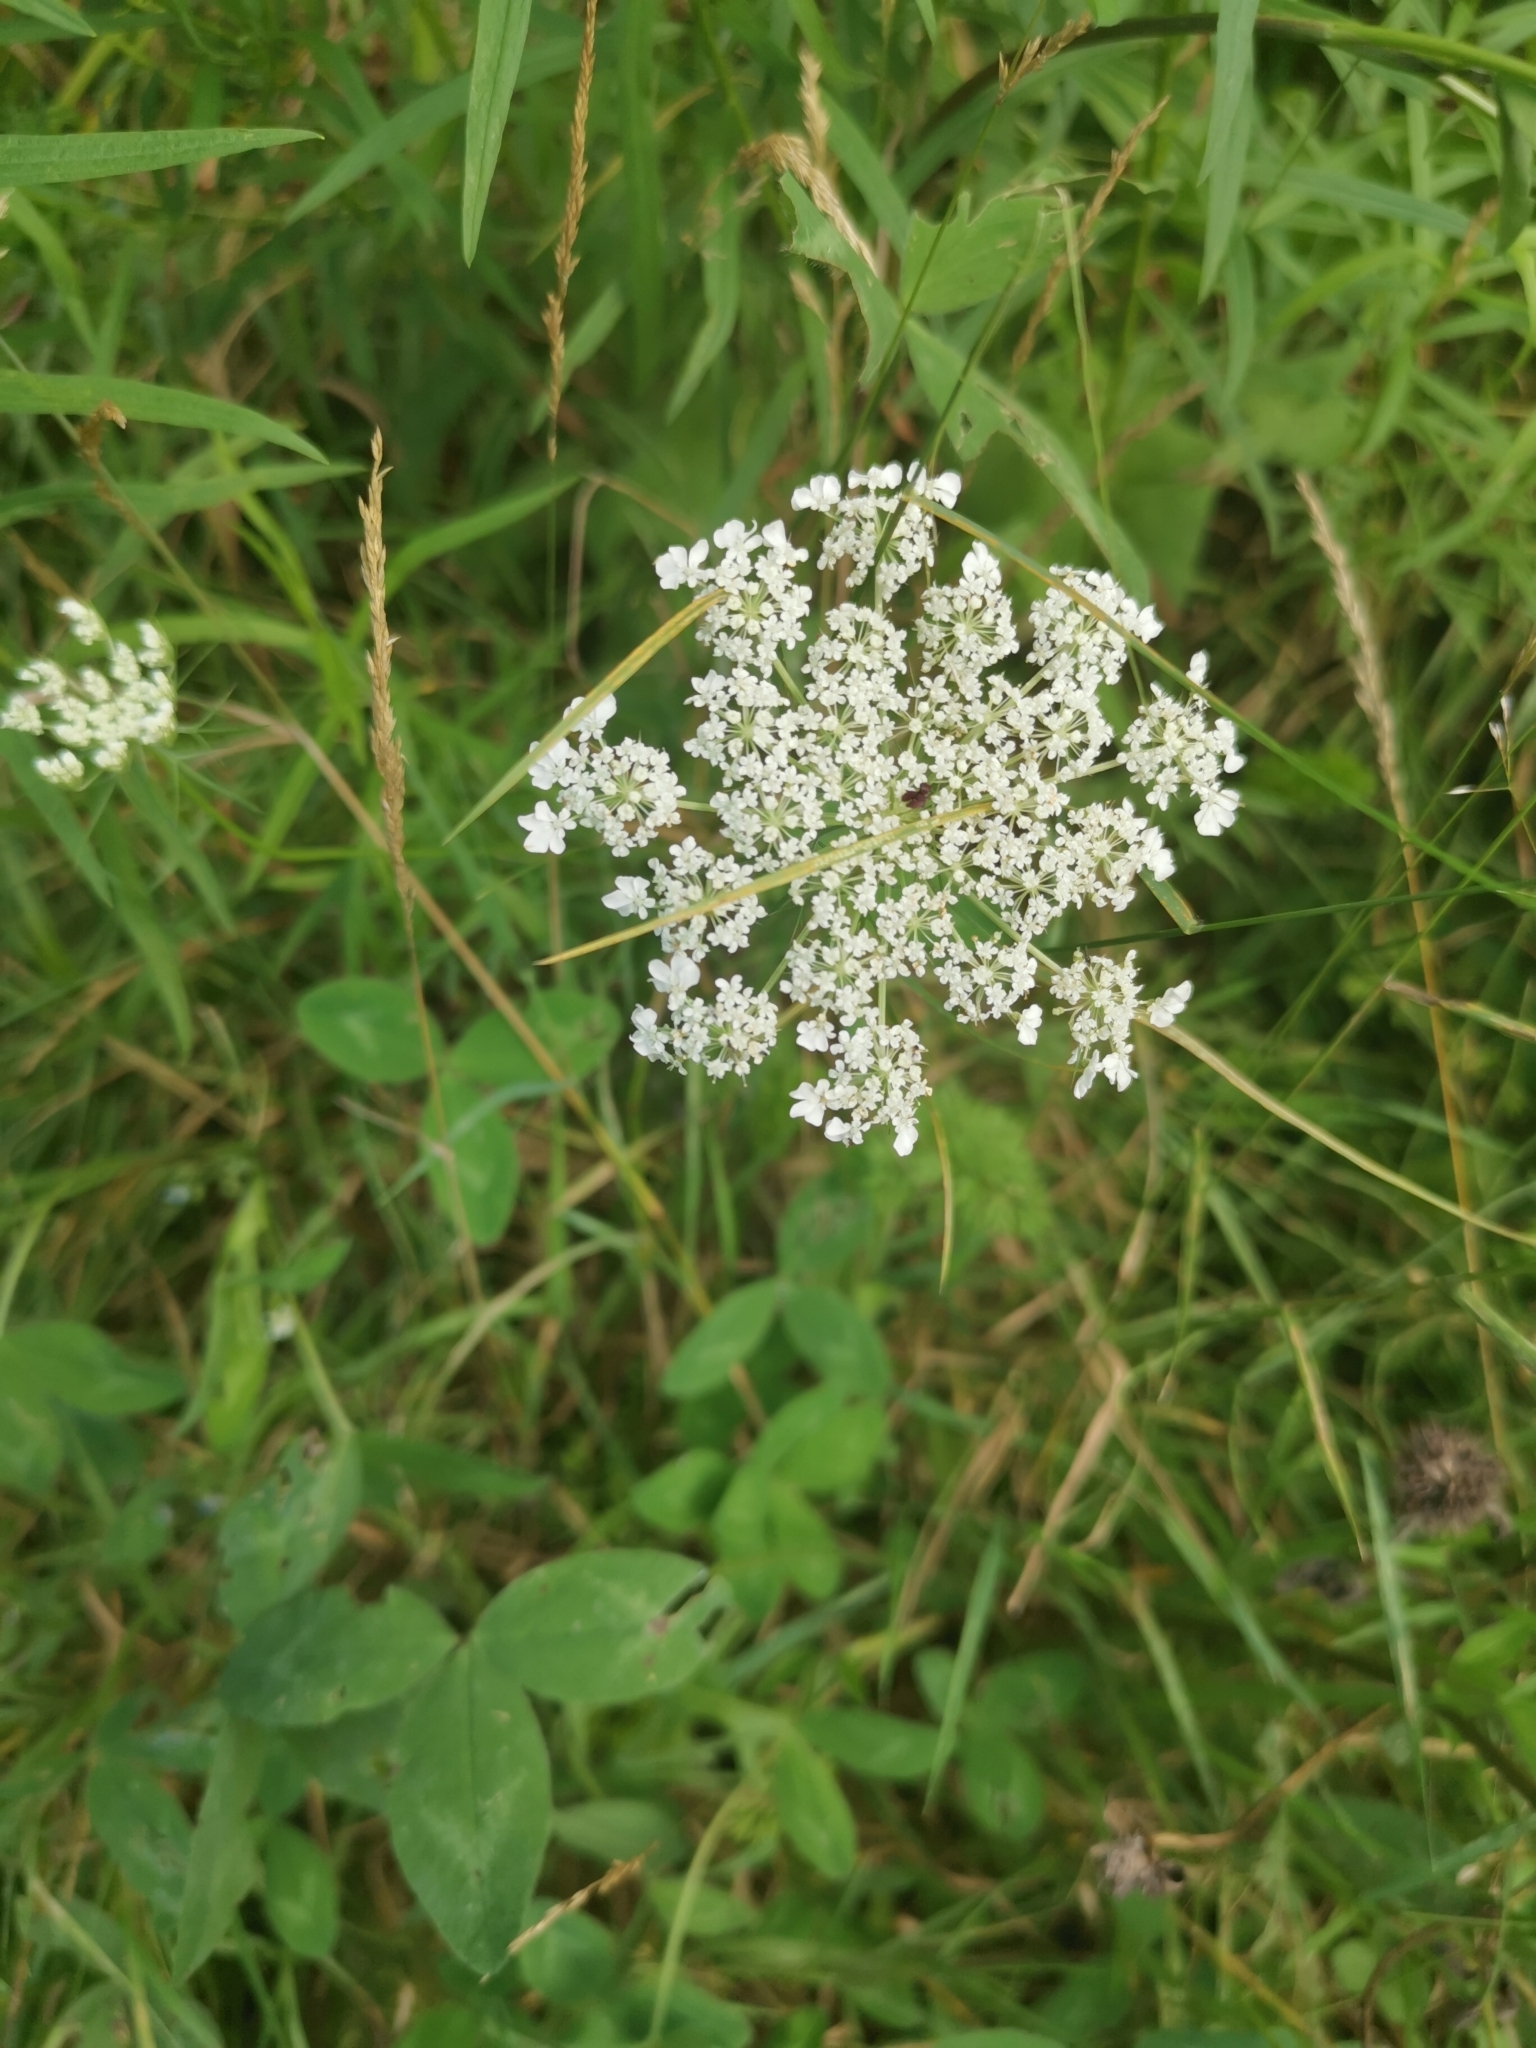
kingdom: Plantae
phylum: Tracheophyta
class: Magnoliopsida
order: Apiales
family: Apiaceae
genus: Daucus
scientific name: Daucus carota
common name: Wild carrot
